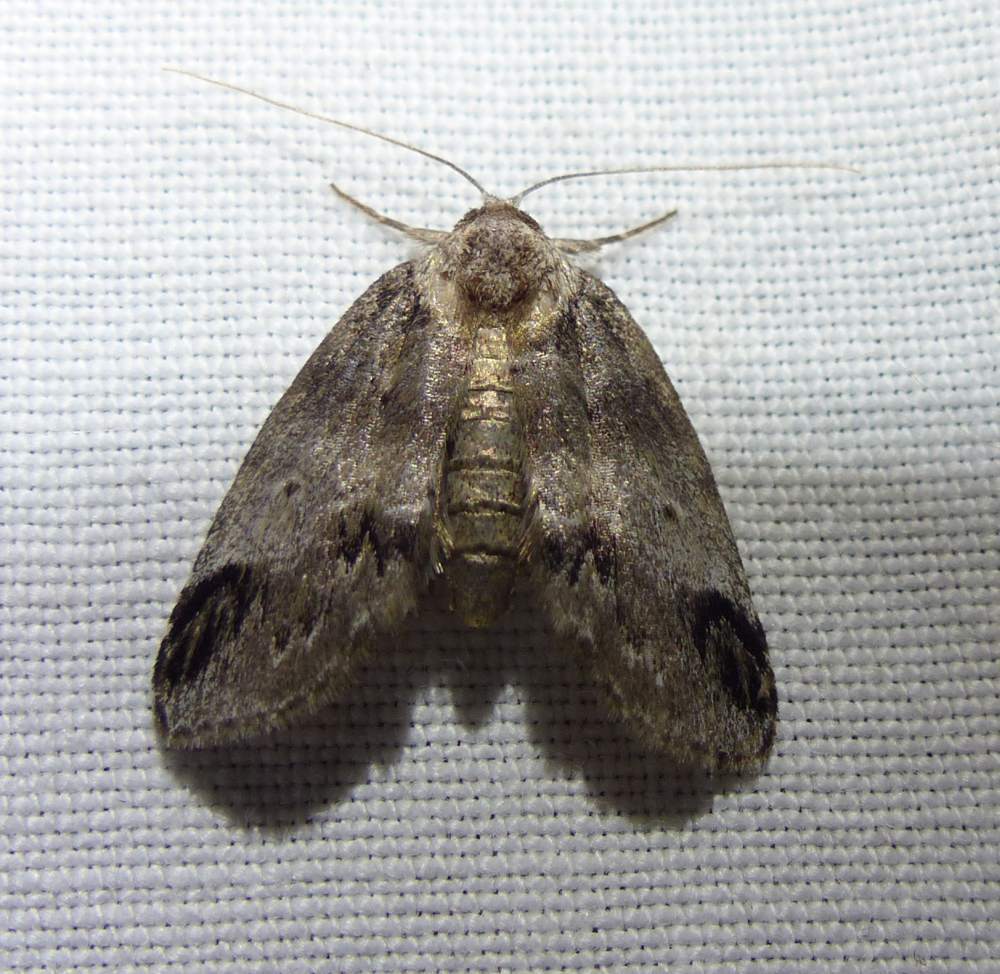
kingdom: Animalia
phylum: Arthropoda
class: Insecta
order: Lepidoptera
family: Nolidae
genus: Baileya
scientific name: Baileya dormitans
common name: Sleeping baileya moth
